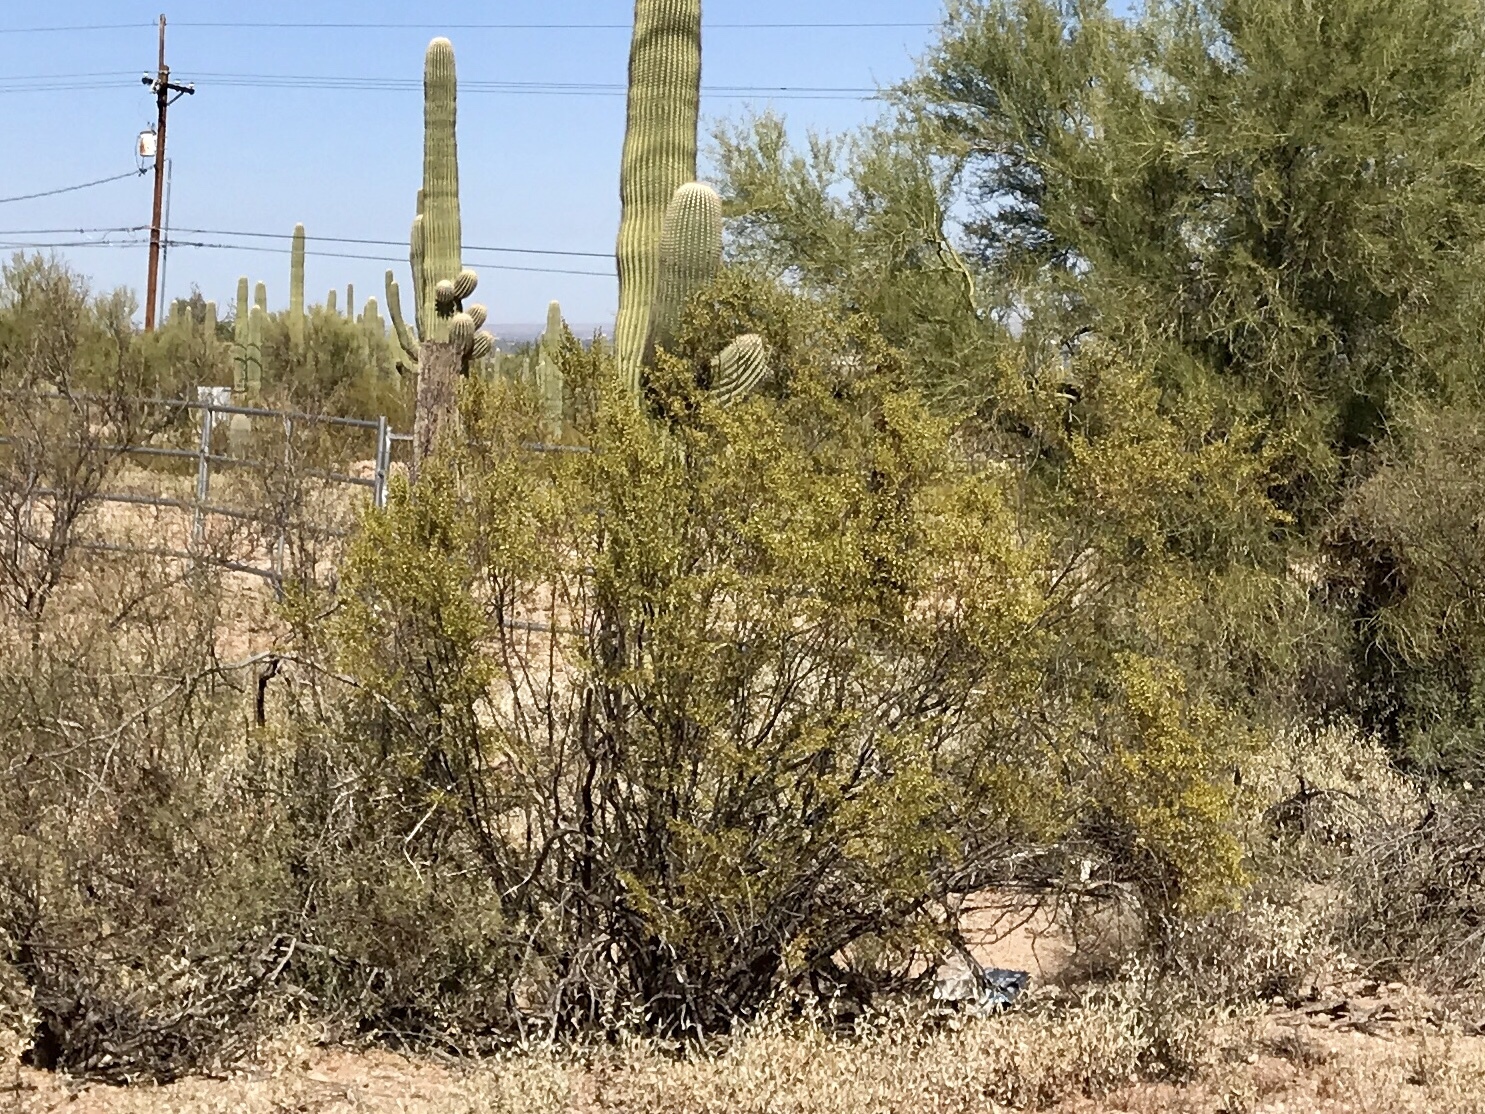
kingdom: Plantae
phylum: Tracheophyta
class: Magnoliopsida
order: Zygophyllales
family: Zygophyllaceae
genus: Larrea
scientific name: Larrea tridentata
